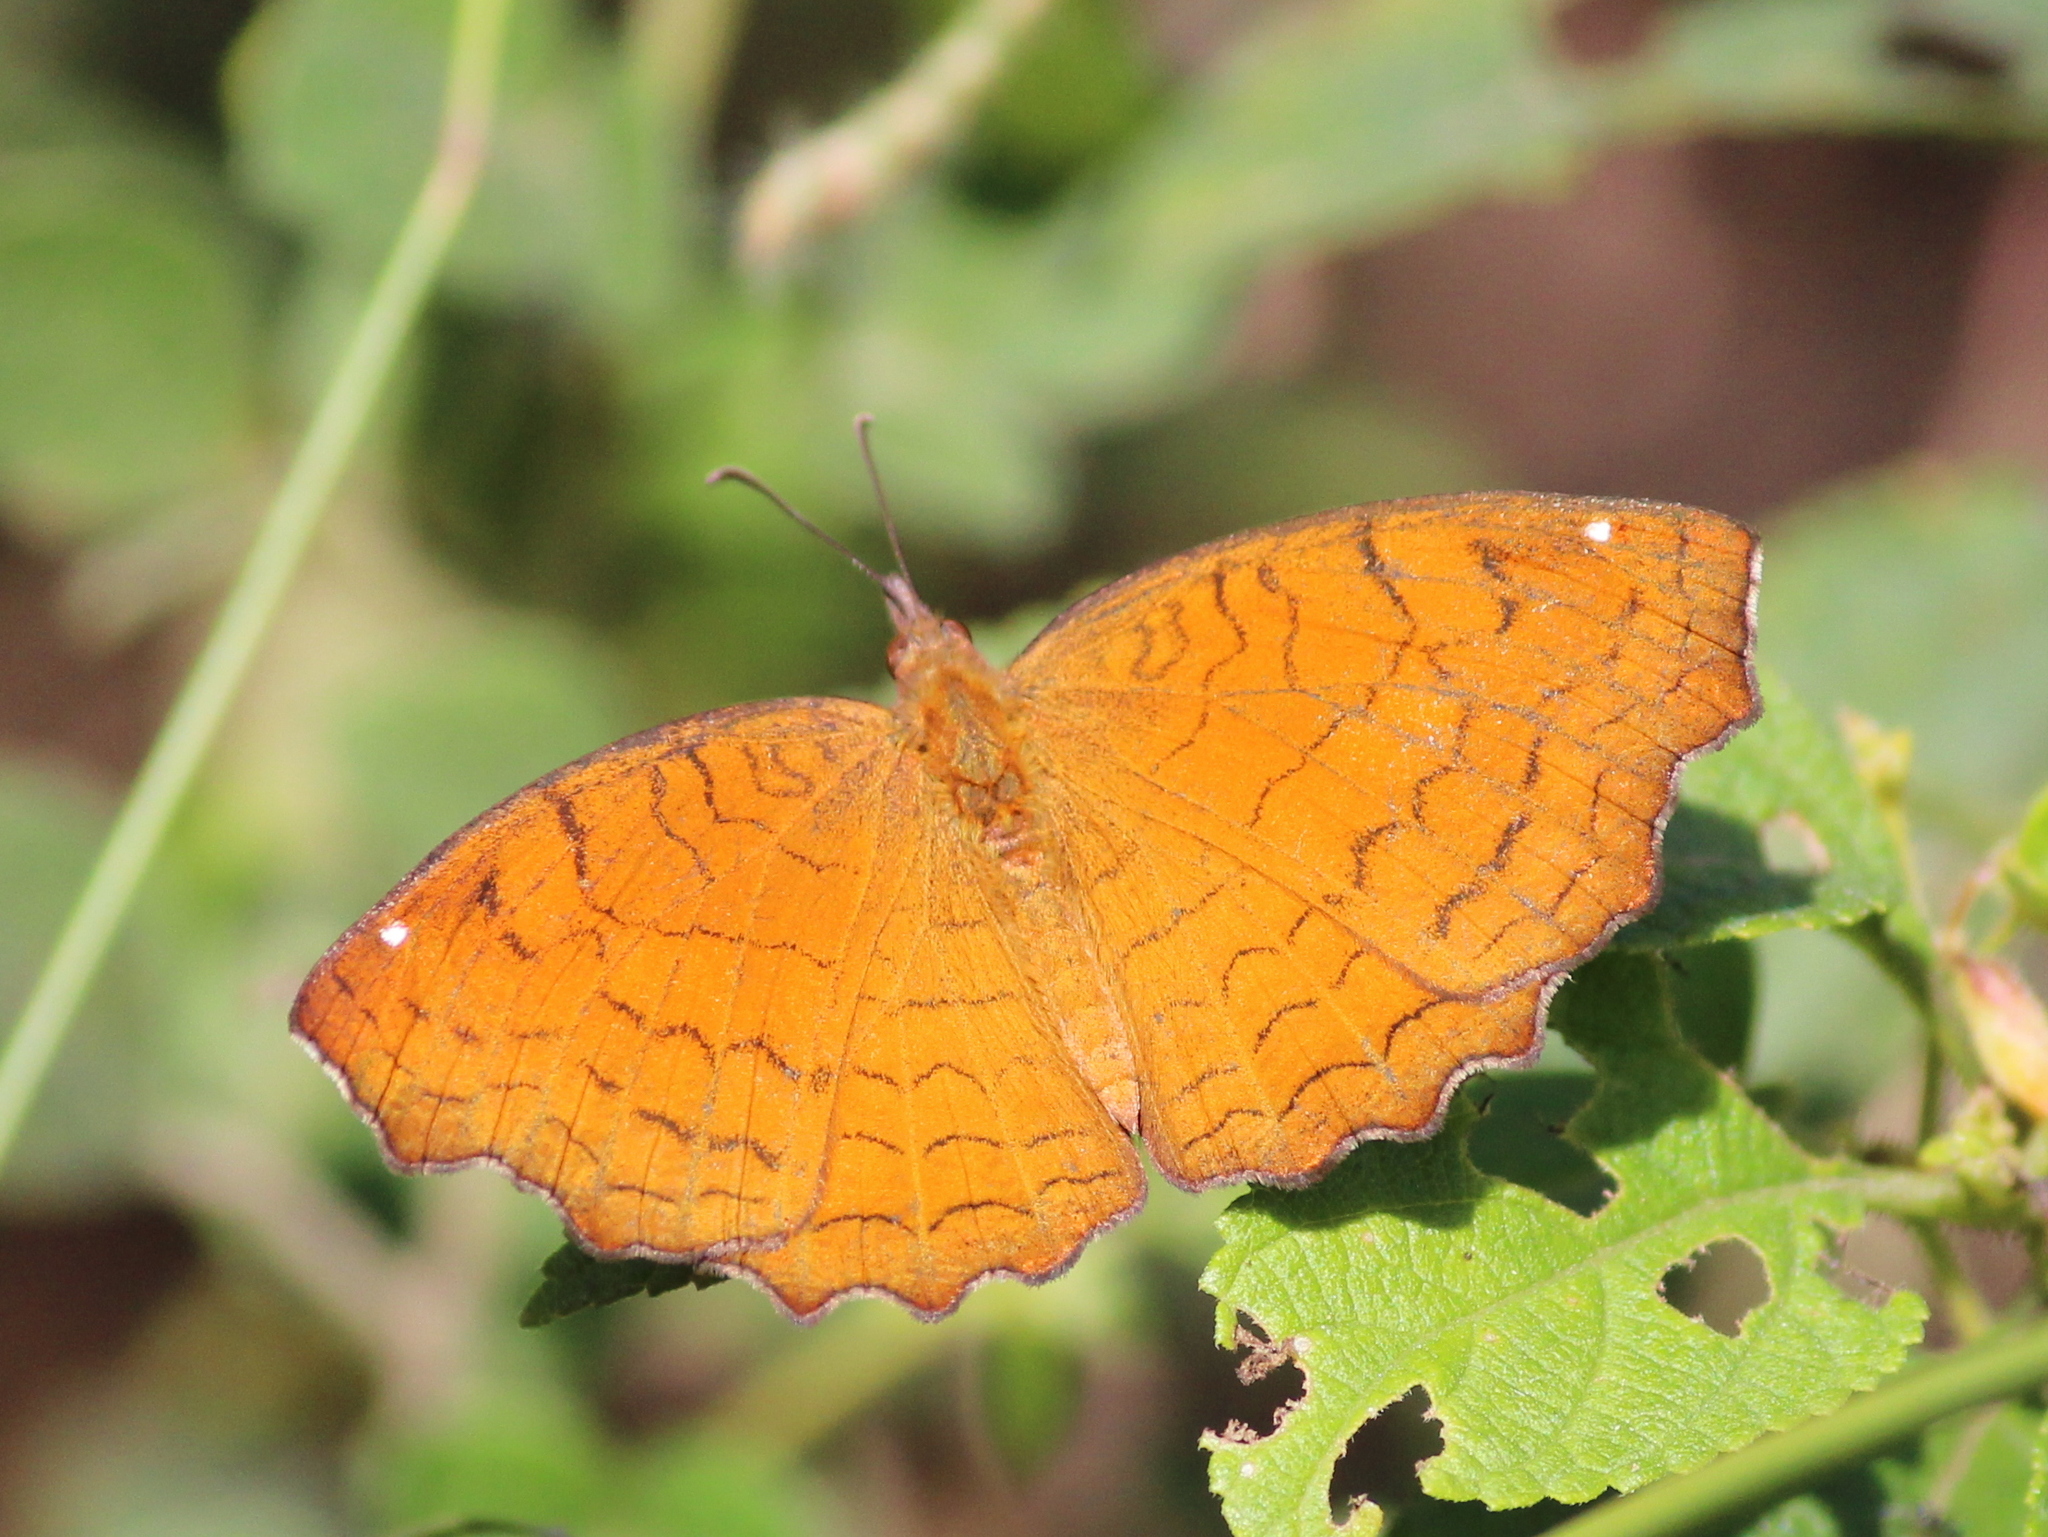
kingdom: Animalia
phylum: Arthropoda
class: Insecta
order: Lepidoptera
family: Nymphalidae
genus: Ariadne
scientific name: Ariadne ariadne
